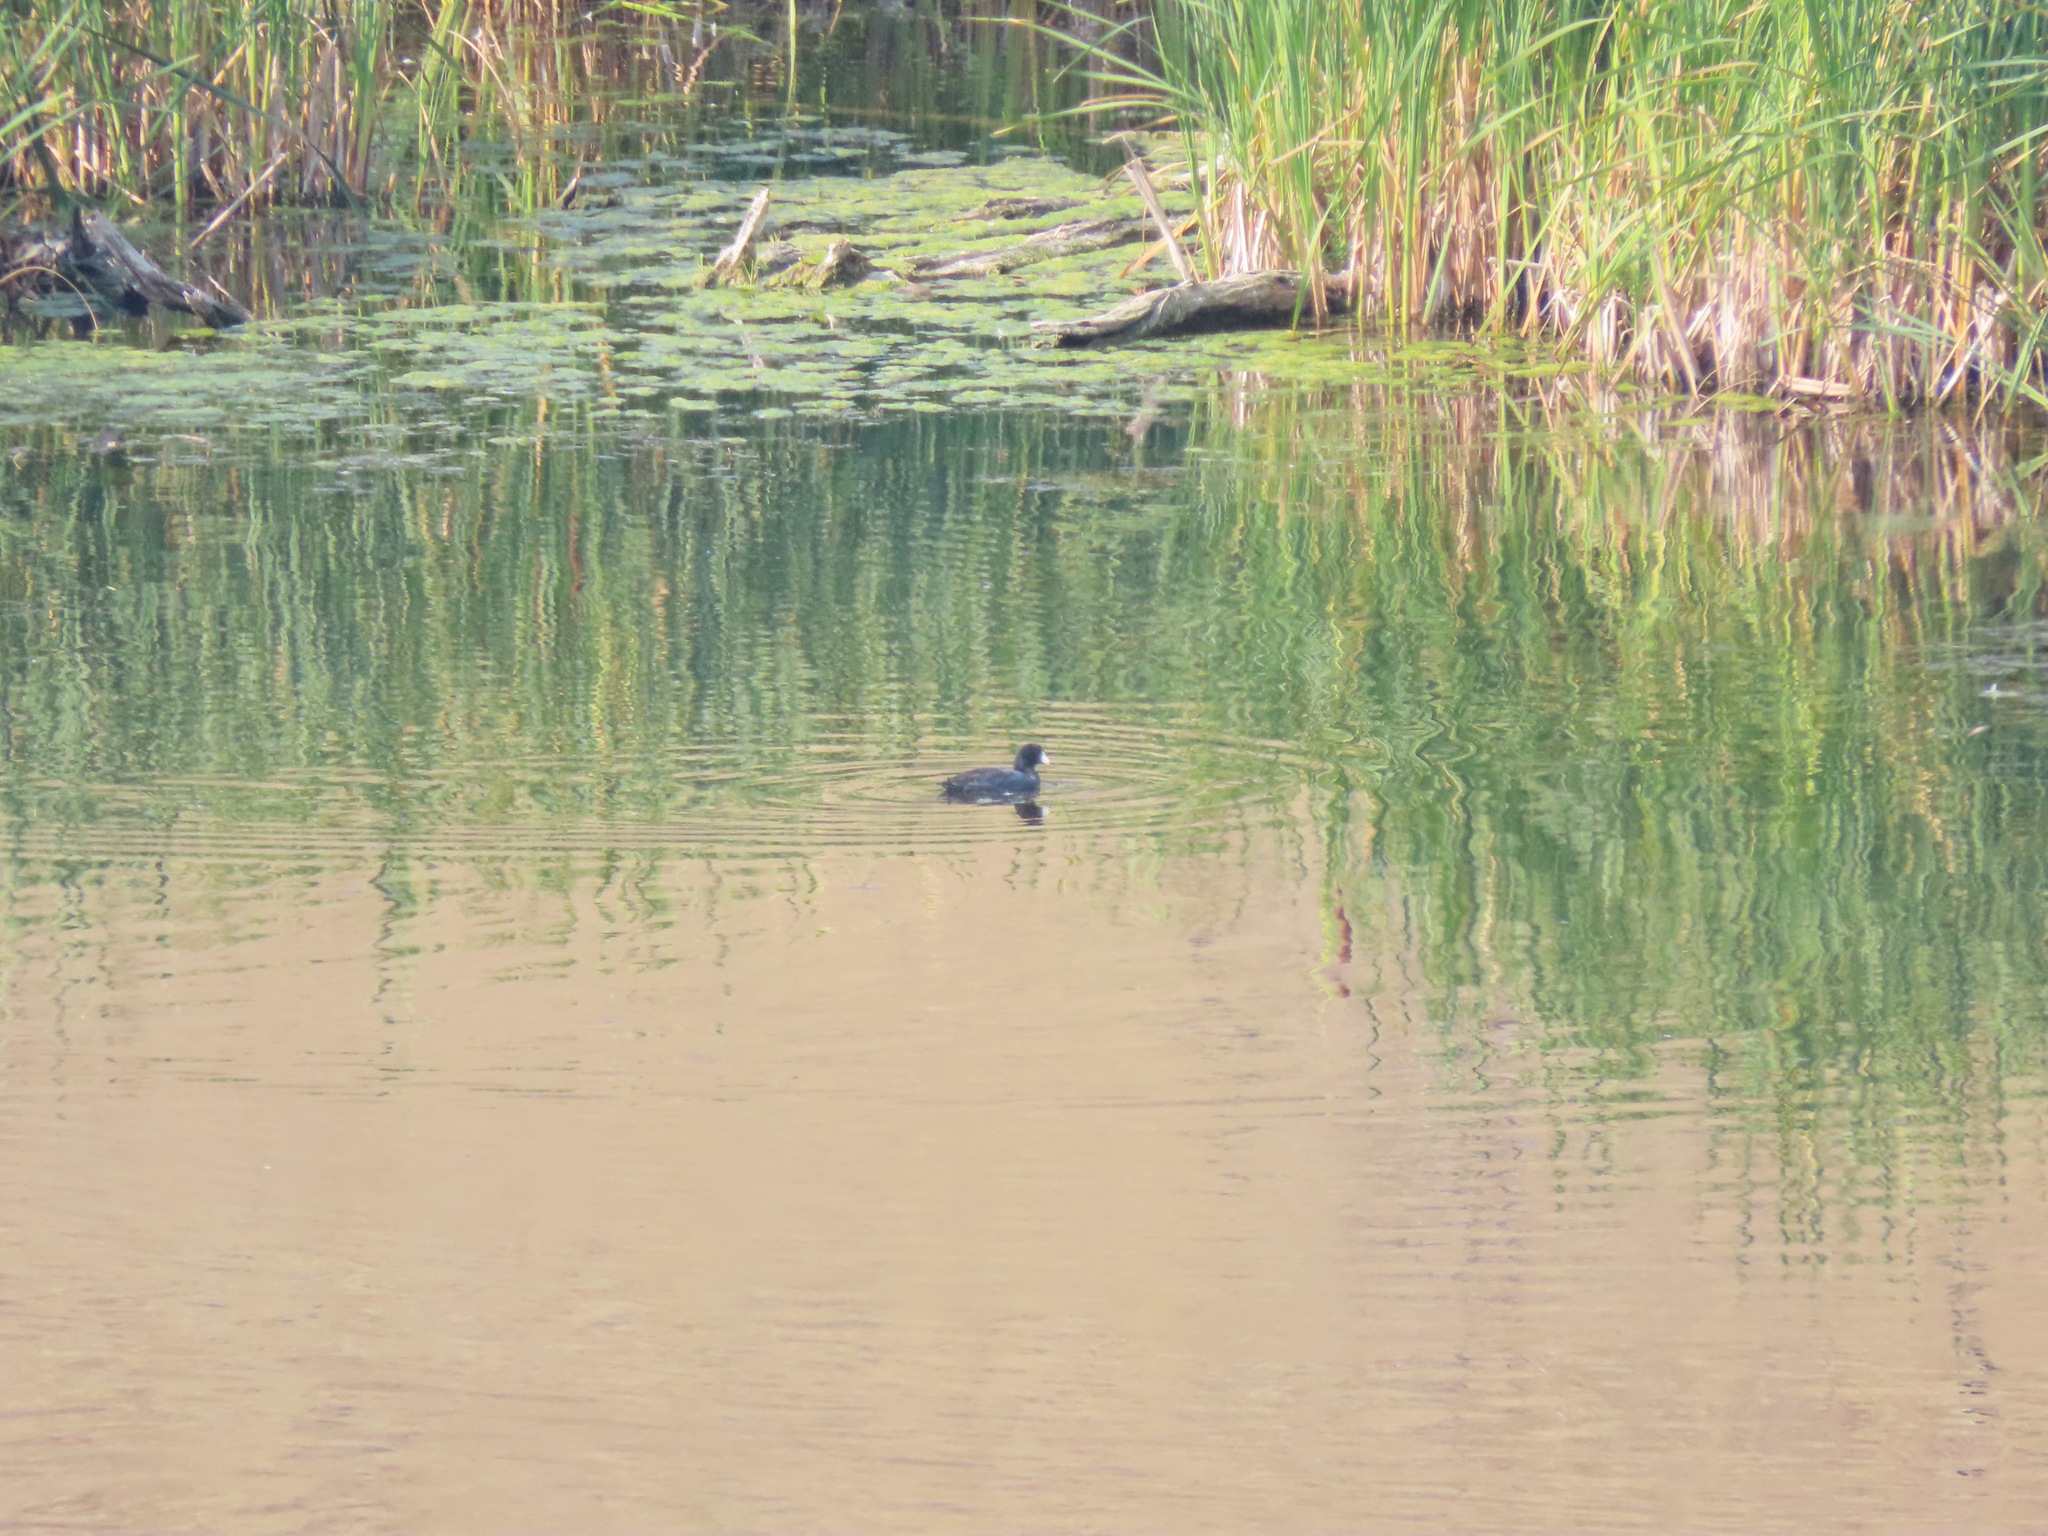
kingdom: Animalia
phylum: Chordata
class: Aves
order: Gruiformes
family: Rallidae
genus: Fulica
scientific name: Fulica americana
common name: American coot
